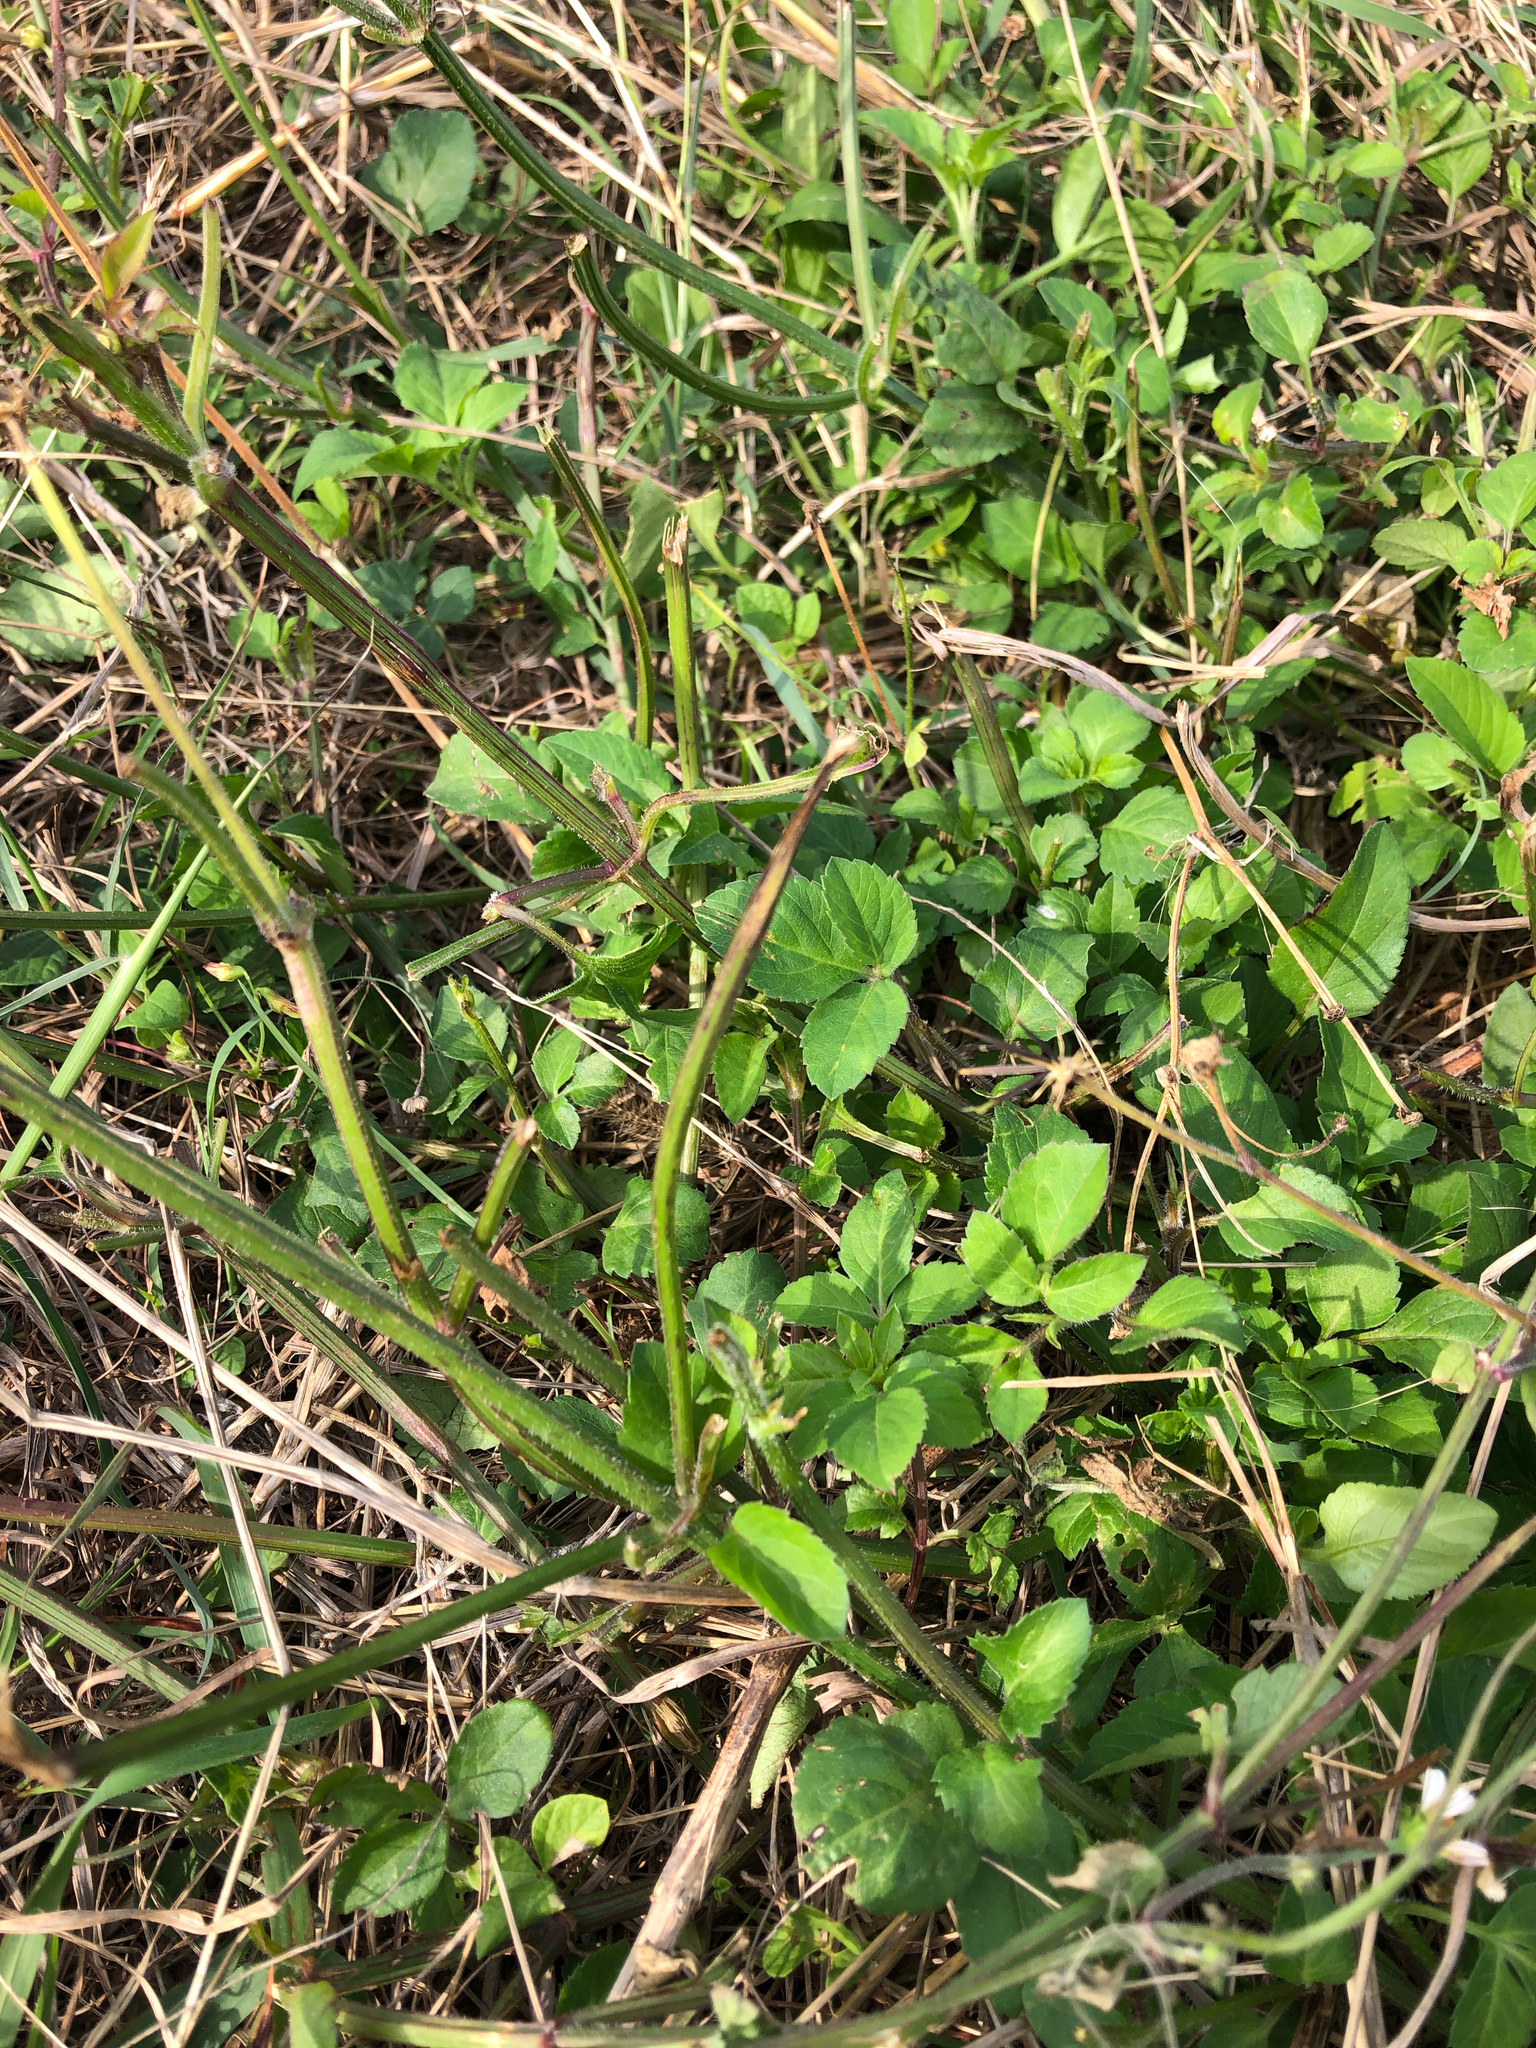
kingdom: Plantae
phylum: Tracheophyta
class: Magnoliopsida
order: Asterales
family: Asteraceae
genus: Bidens
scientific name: Bidens alba
